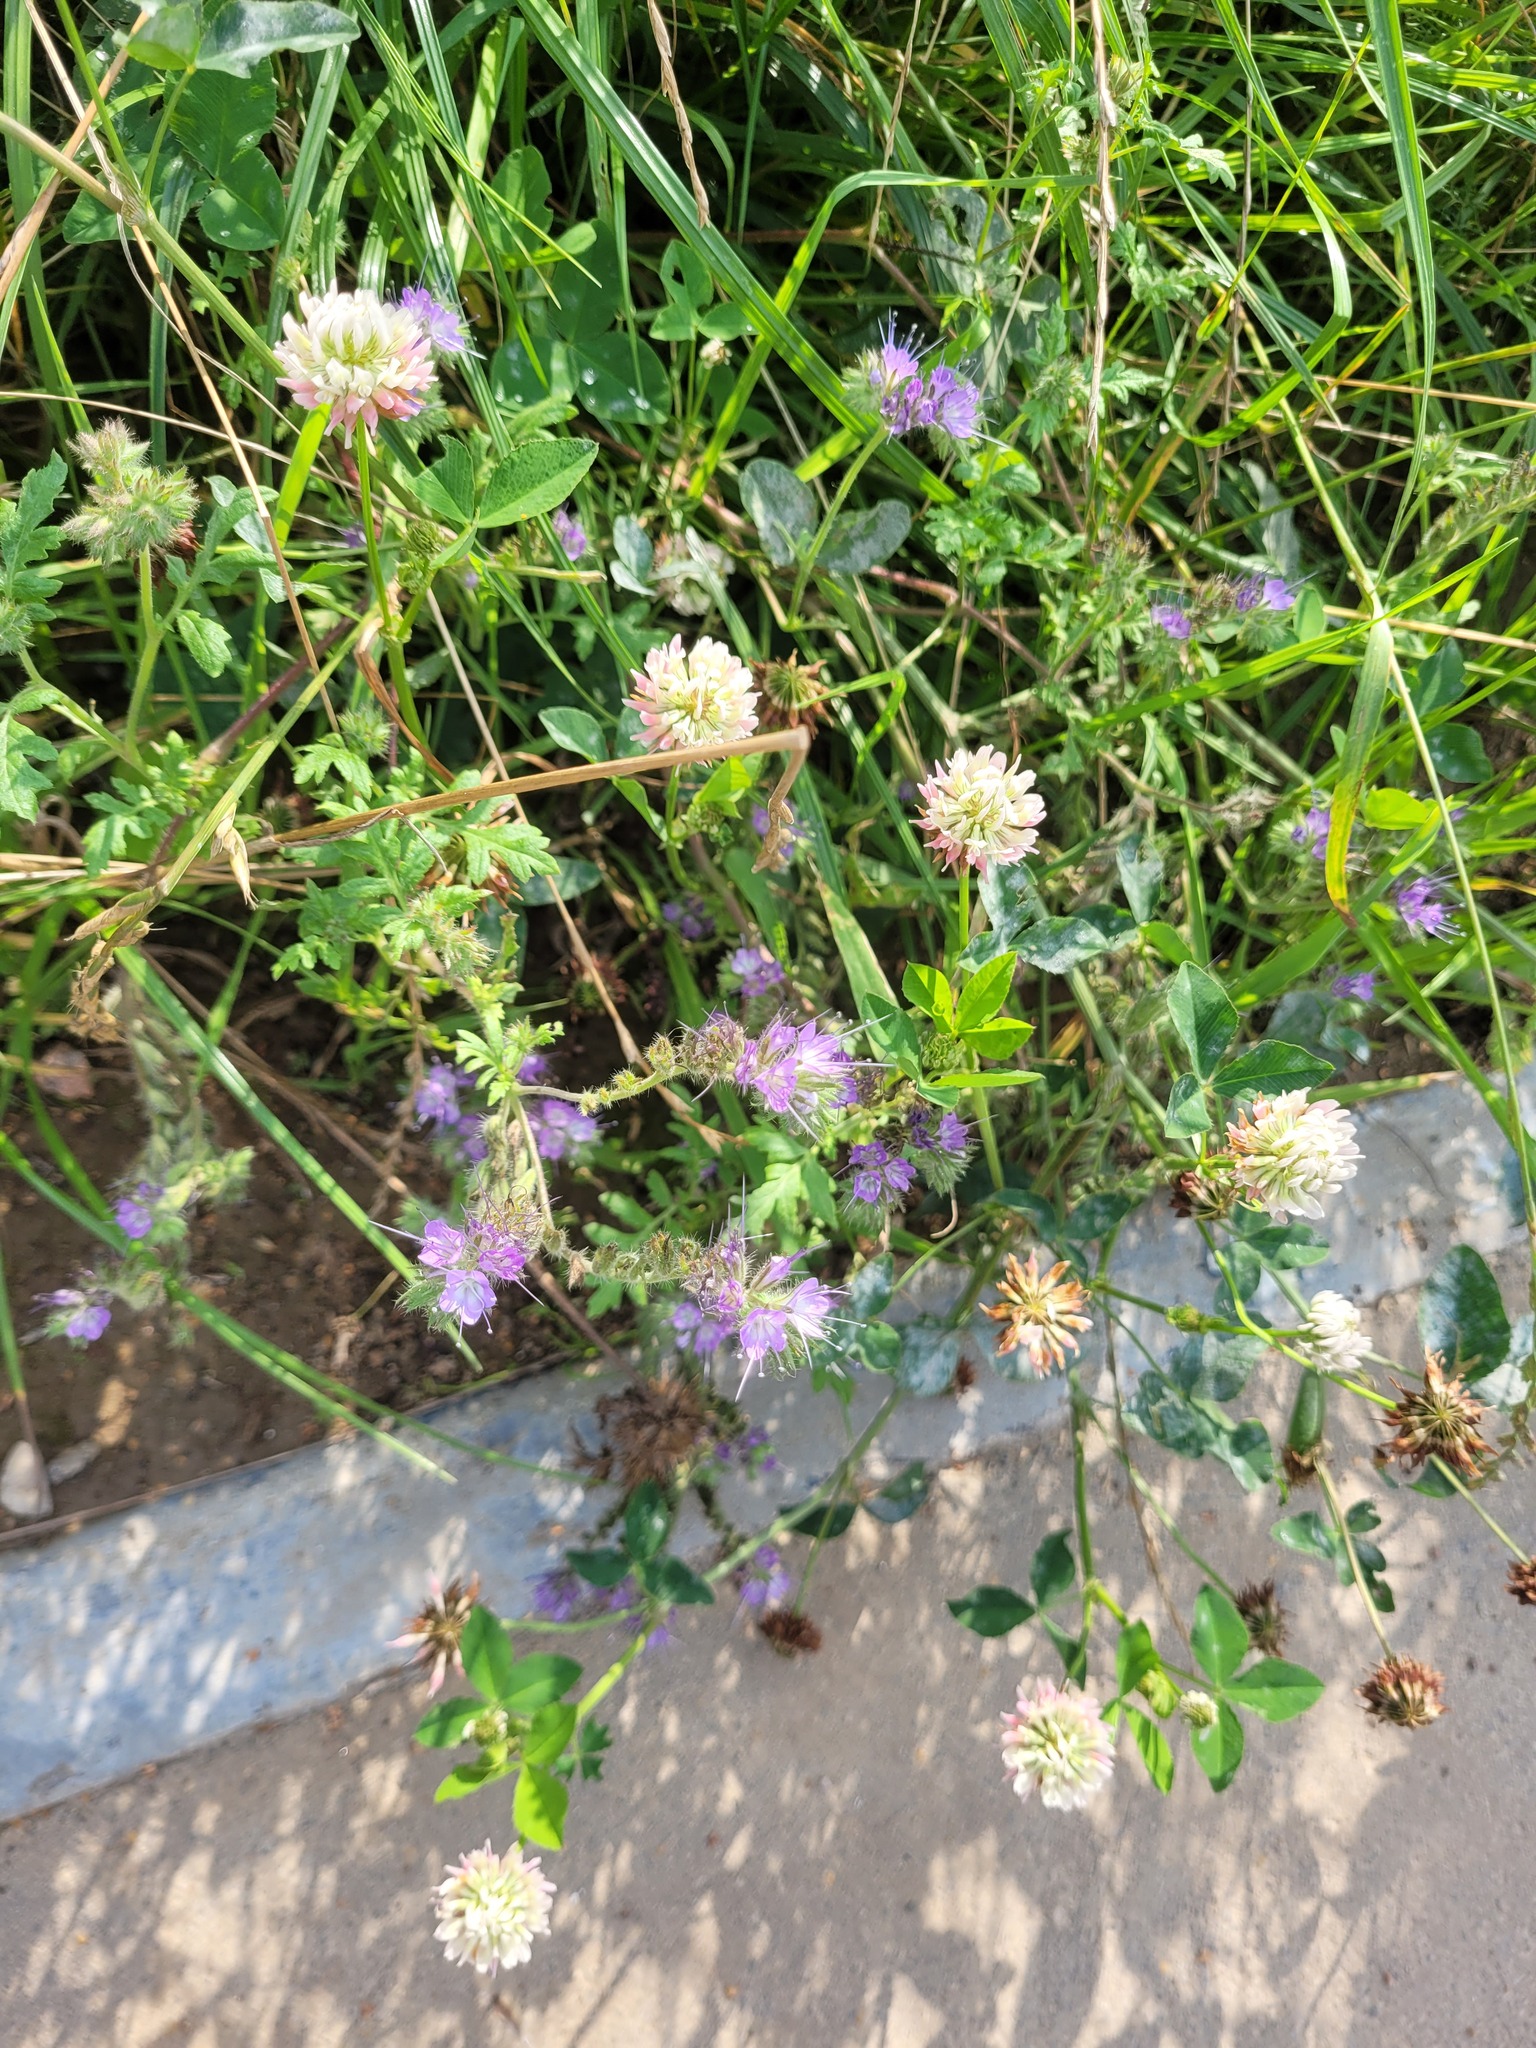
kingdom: Plantae
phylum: Tracheophyta
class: Magnoliopsida
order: Boraginales
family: Hydrophyllaceae
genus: Phacelia
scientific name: Phacelia tanacetifolia
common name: Phacelia
